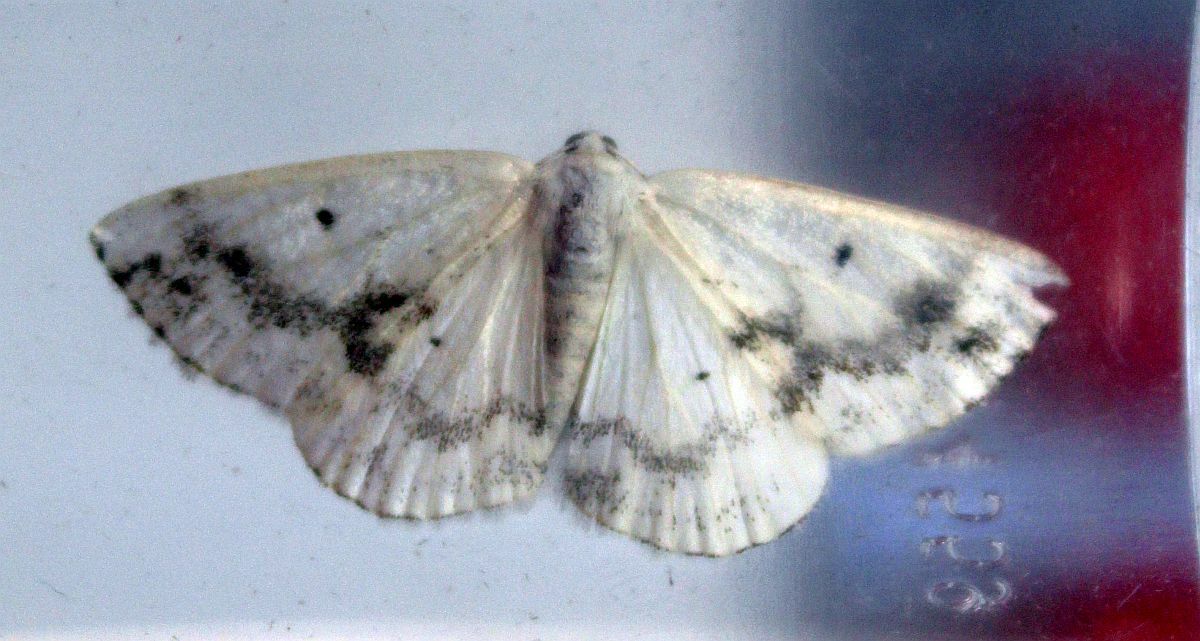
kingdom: Animalia
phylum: Arthropoda
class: Insecta
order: Lepidoptera
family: Geometridae
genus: Lomographa
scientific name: Lomographa temerata
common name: Clouded silver
